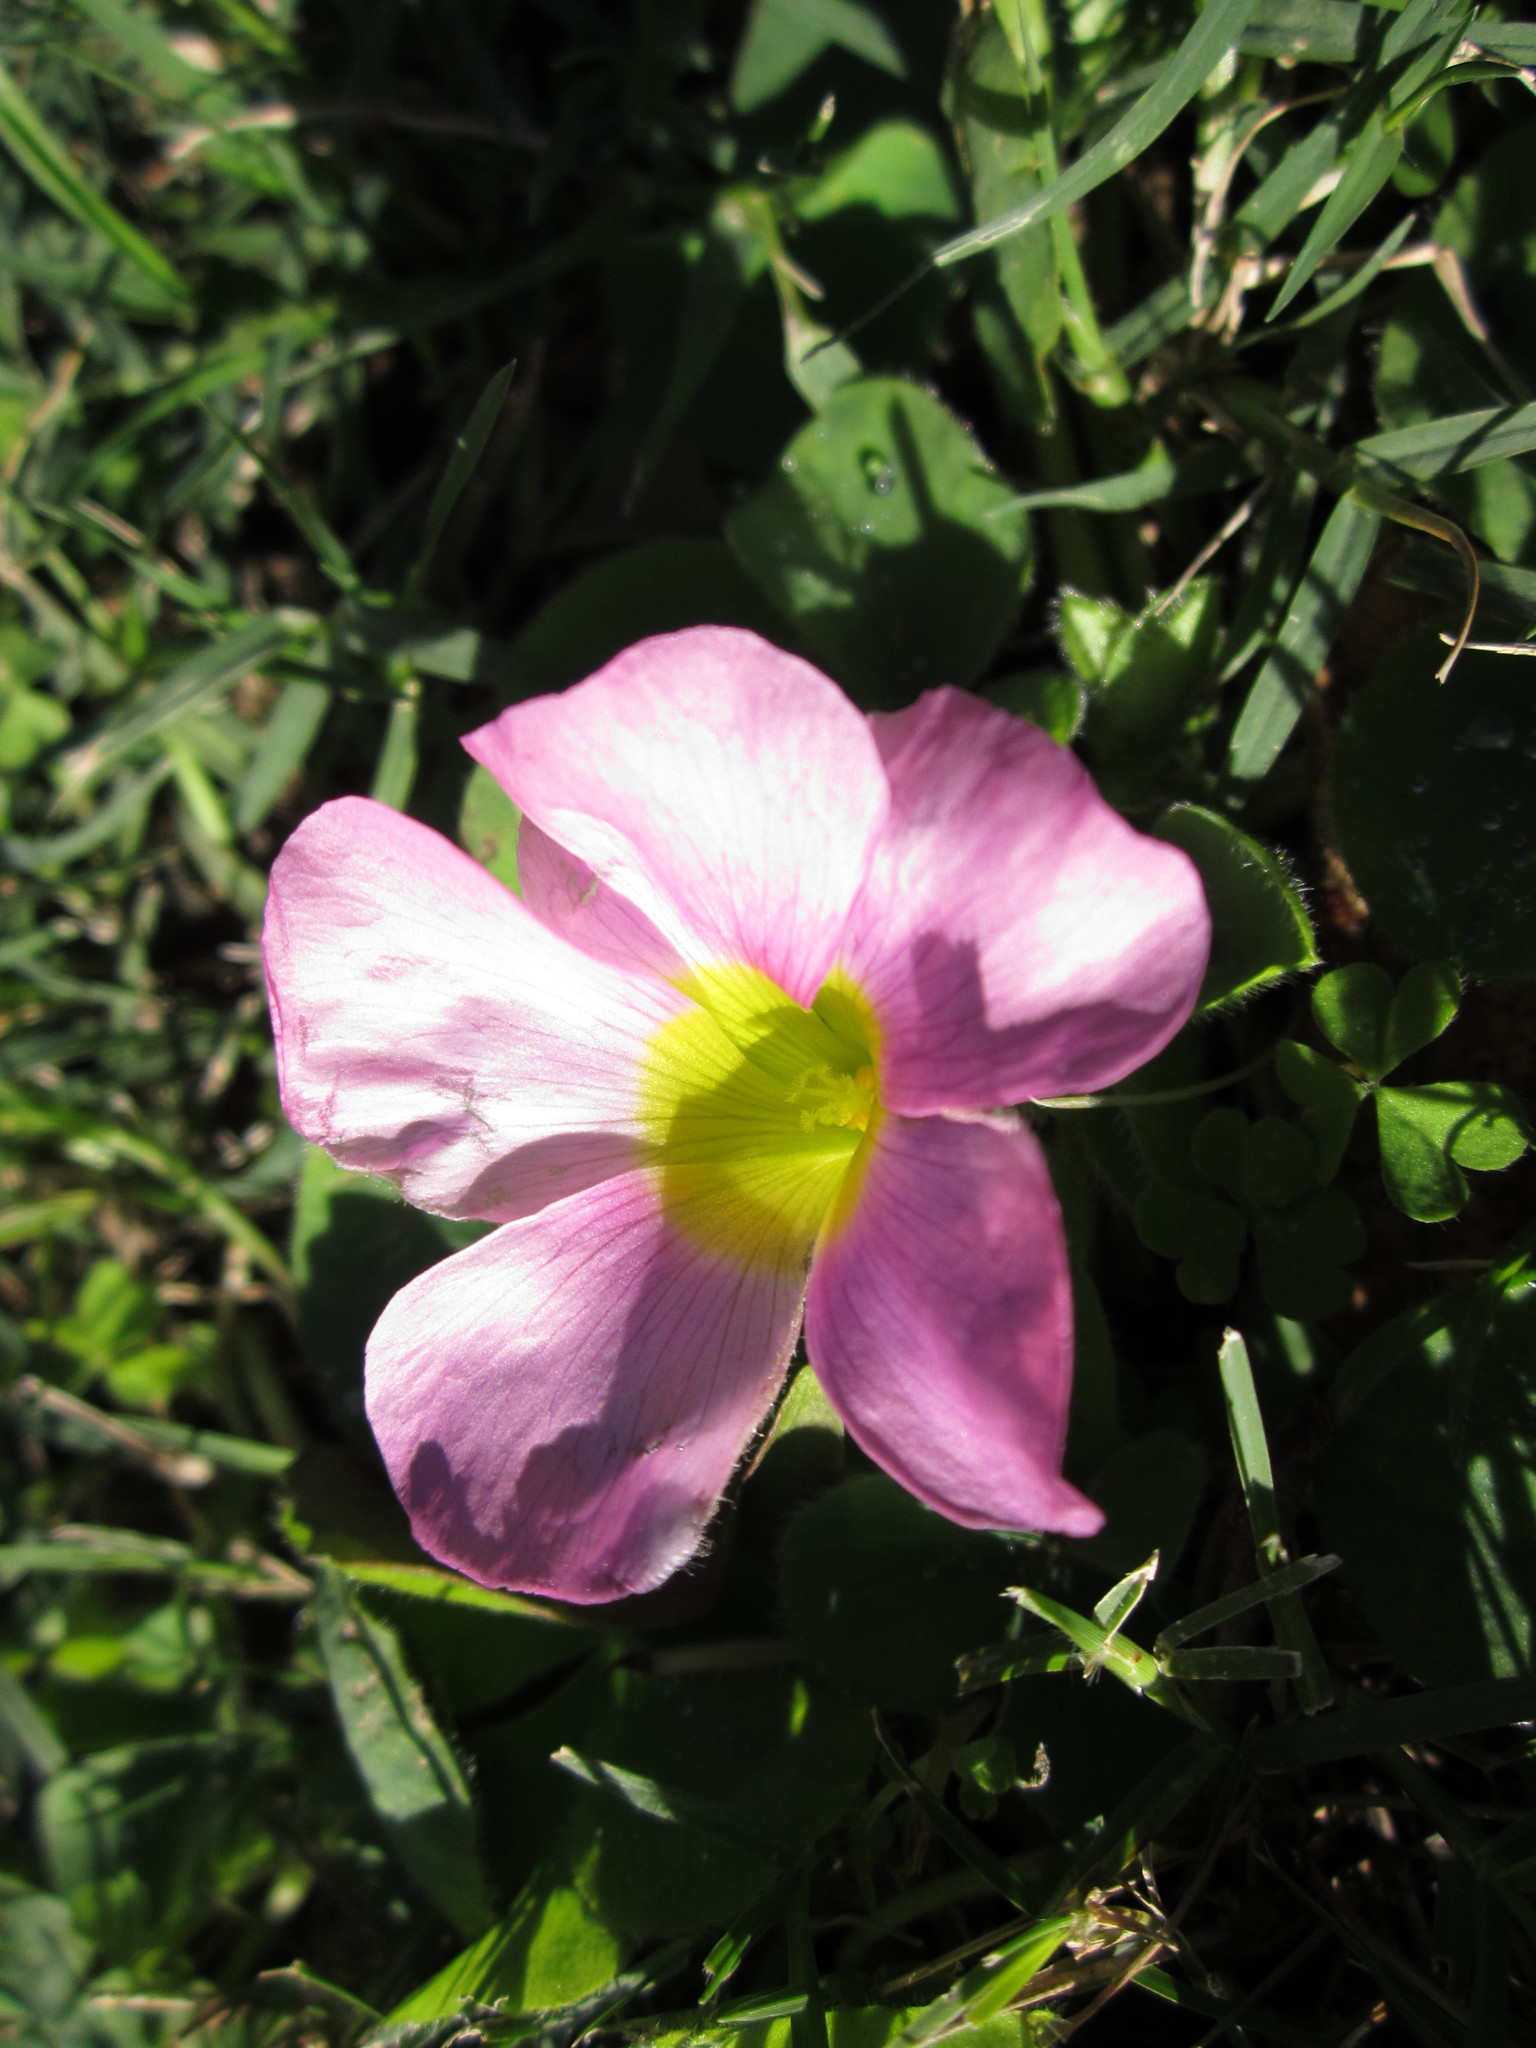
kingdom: Plantae
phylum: Tracheophyta
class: Magnoliopsida
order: Oxalidales
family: Oxalidaceae
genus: Oxalis
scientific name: Oxalis purpurea
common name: Purple woodsorrel
